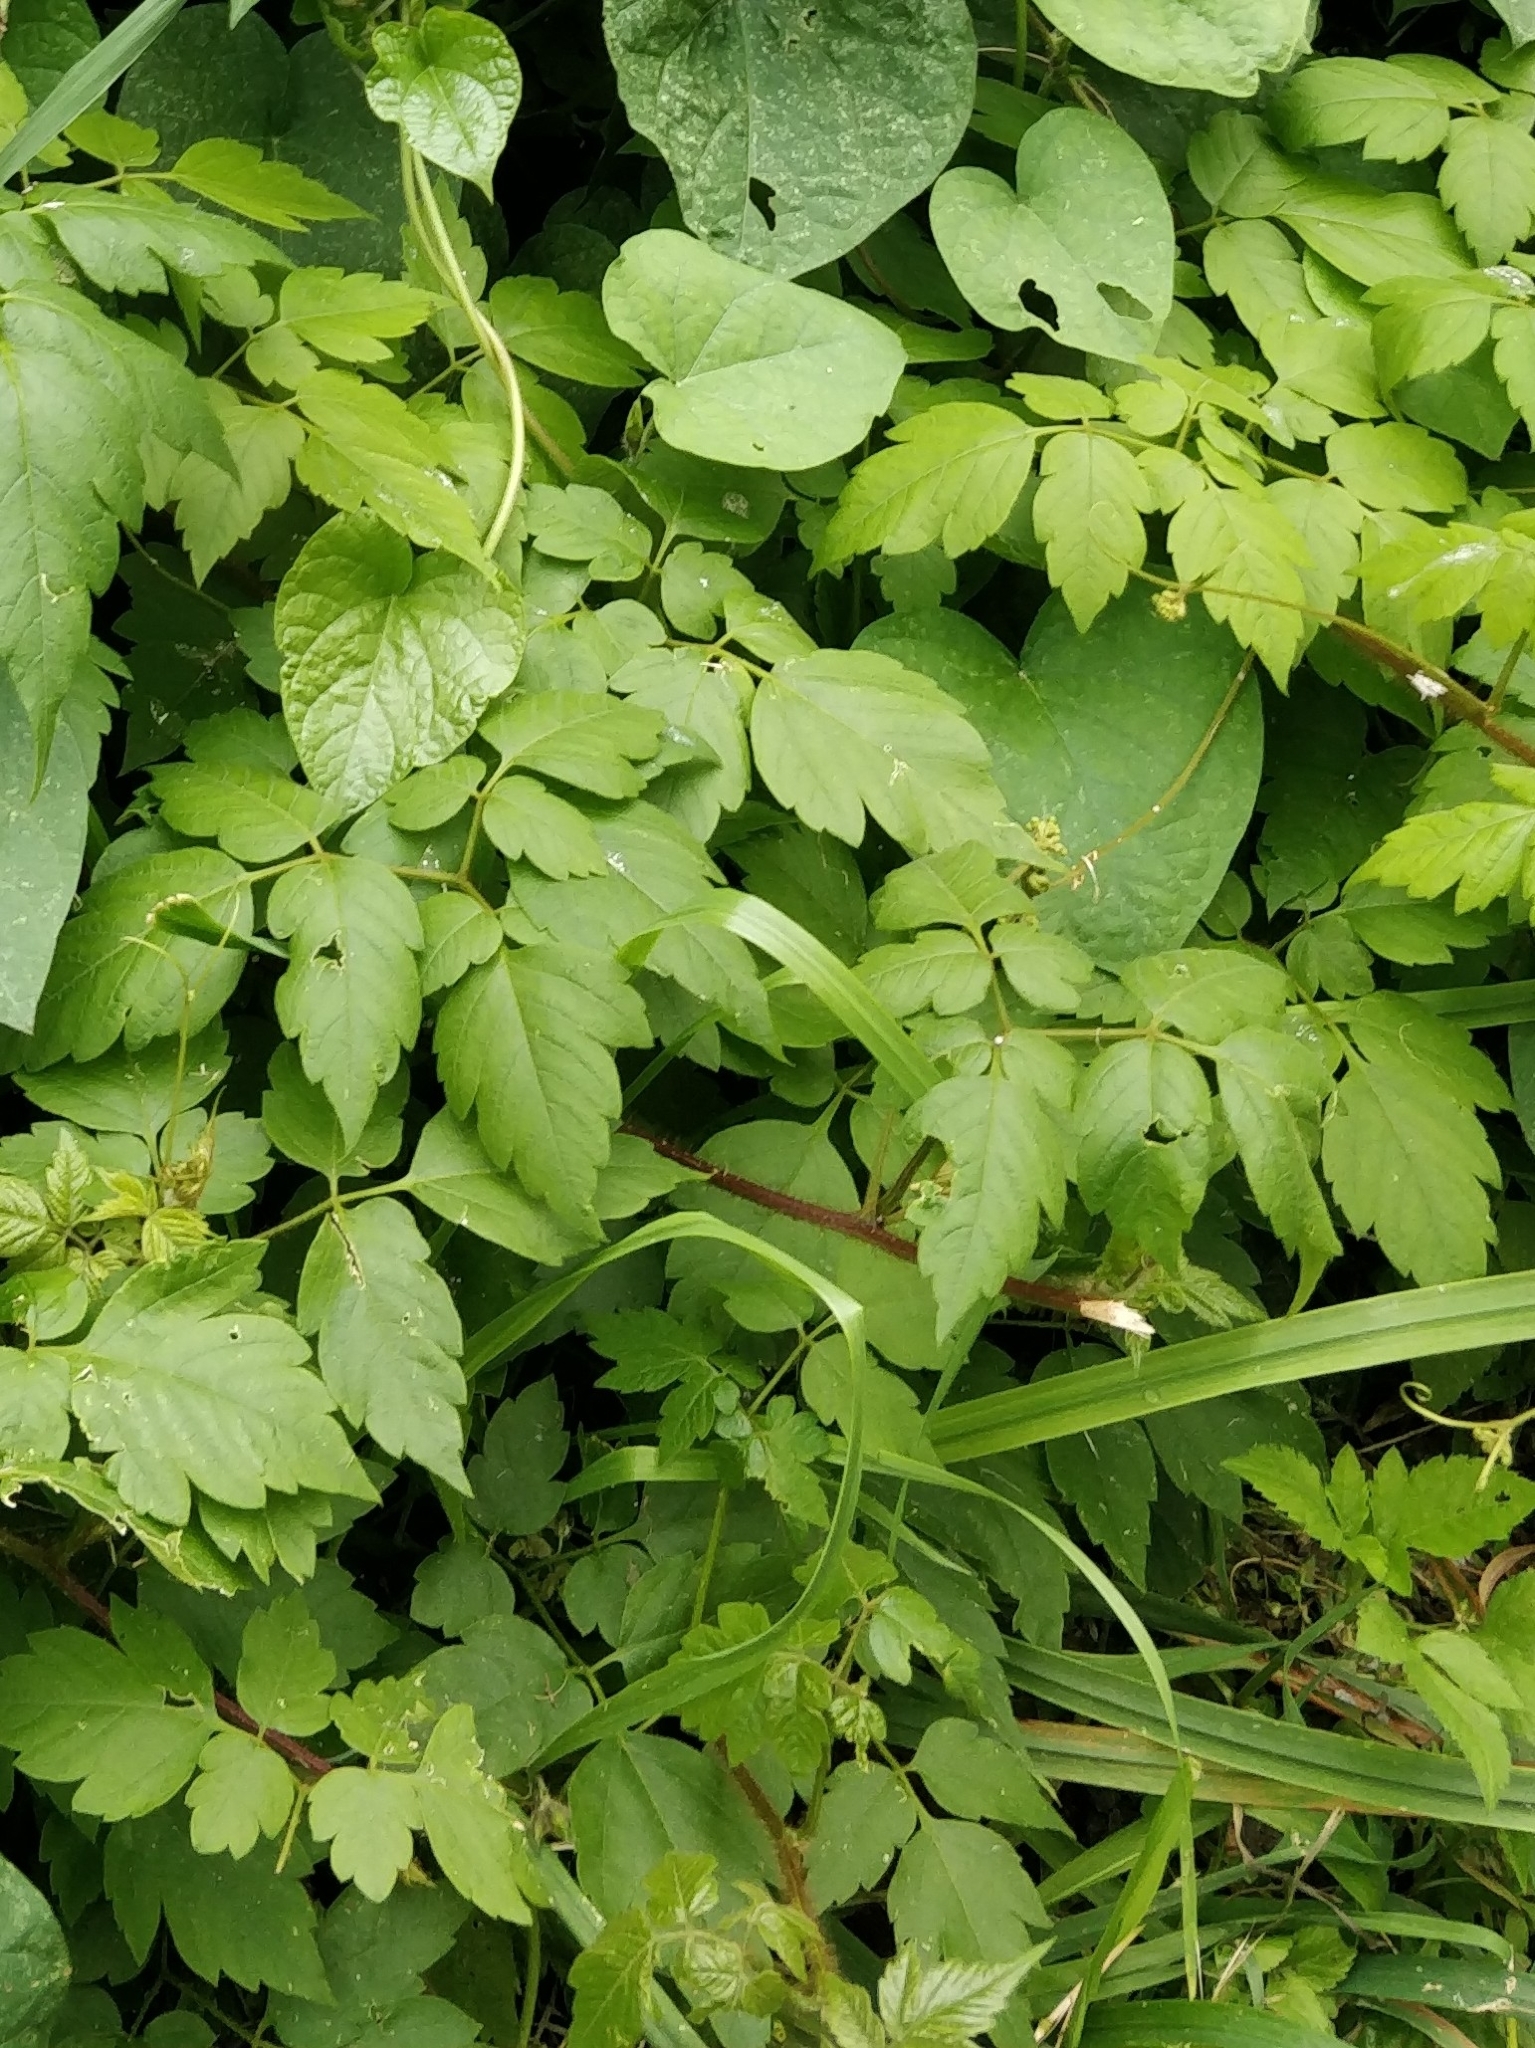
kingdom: Plantae
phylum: Tracheophyta
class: Magnoliopsida
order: Sapindales
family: Sapindaceae
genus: Cardiospermum
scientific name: Cardiospermum grandiflorum
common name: Balloon vine
